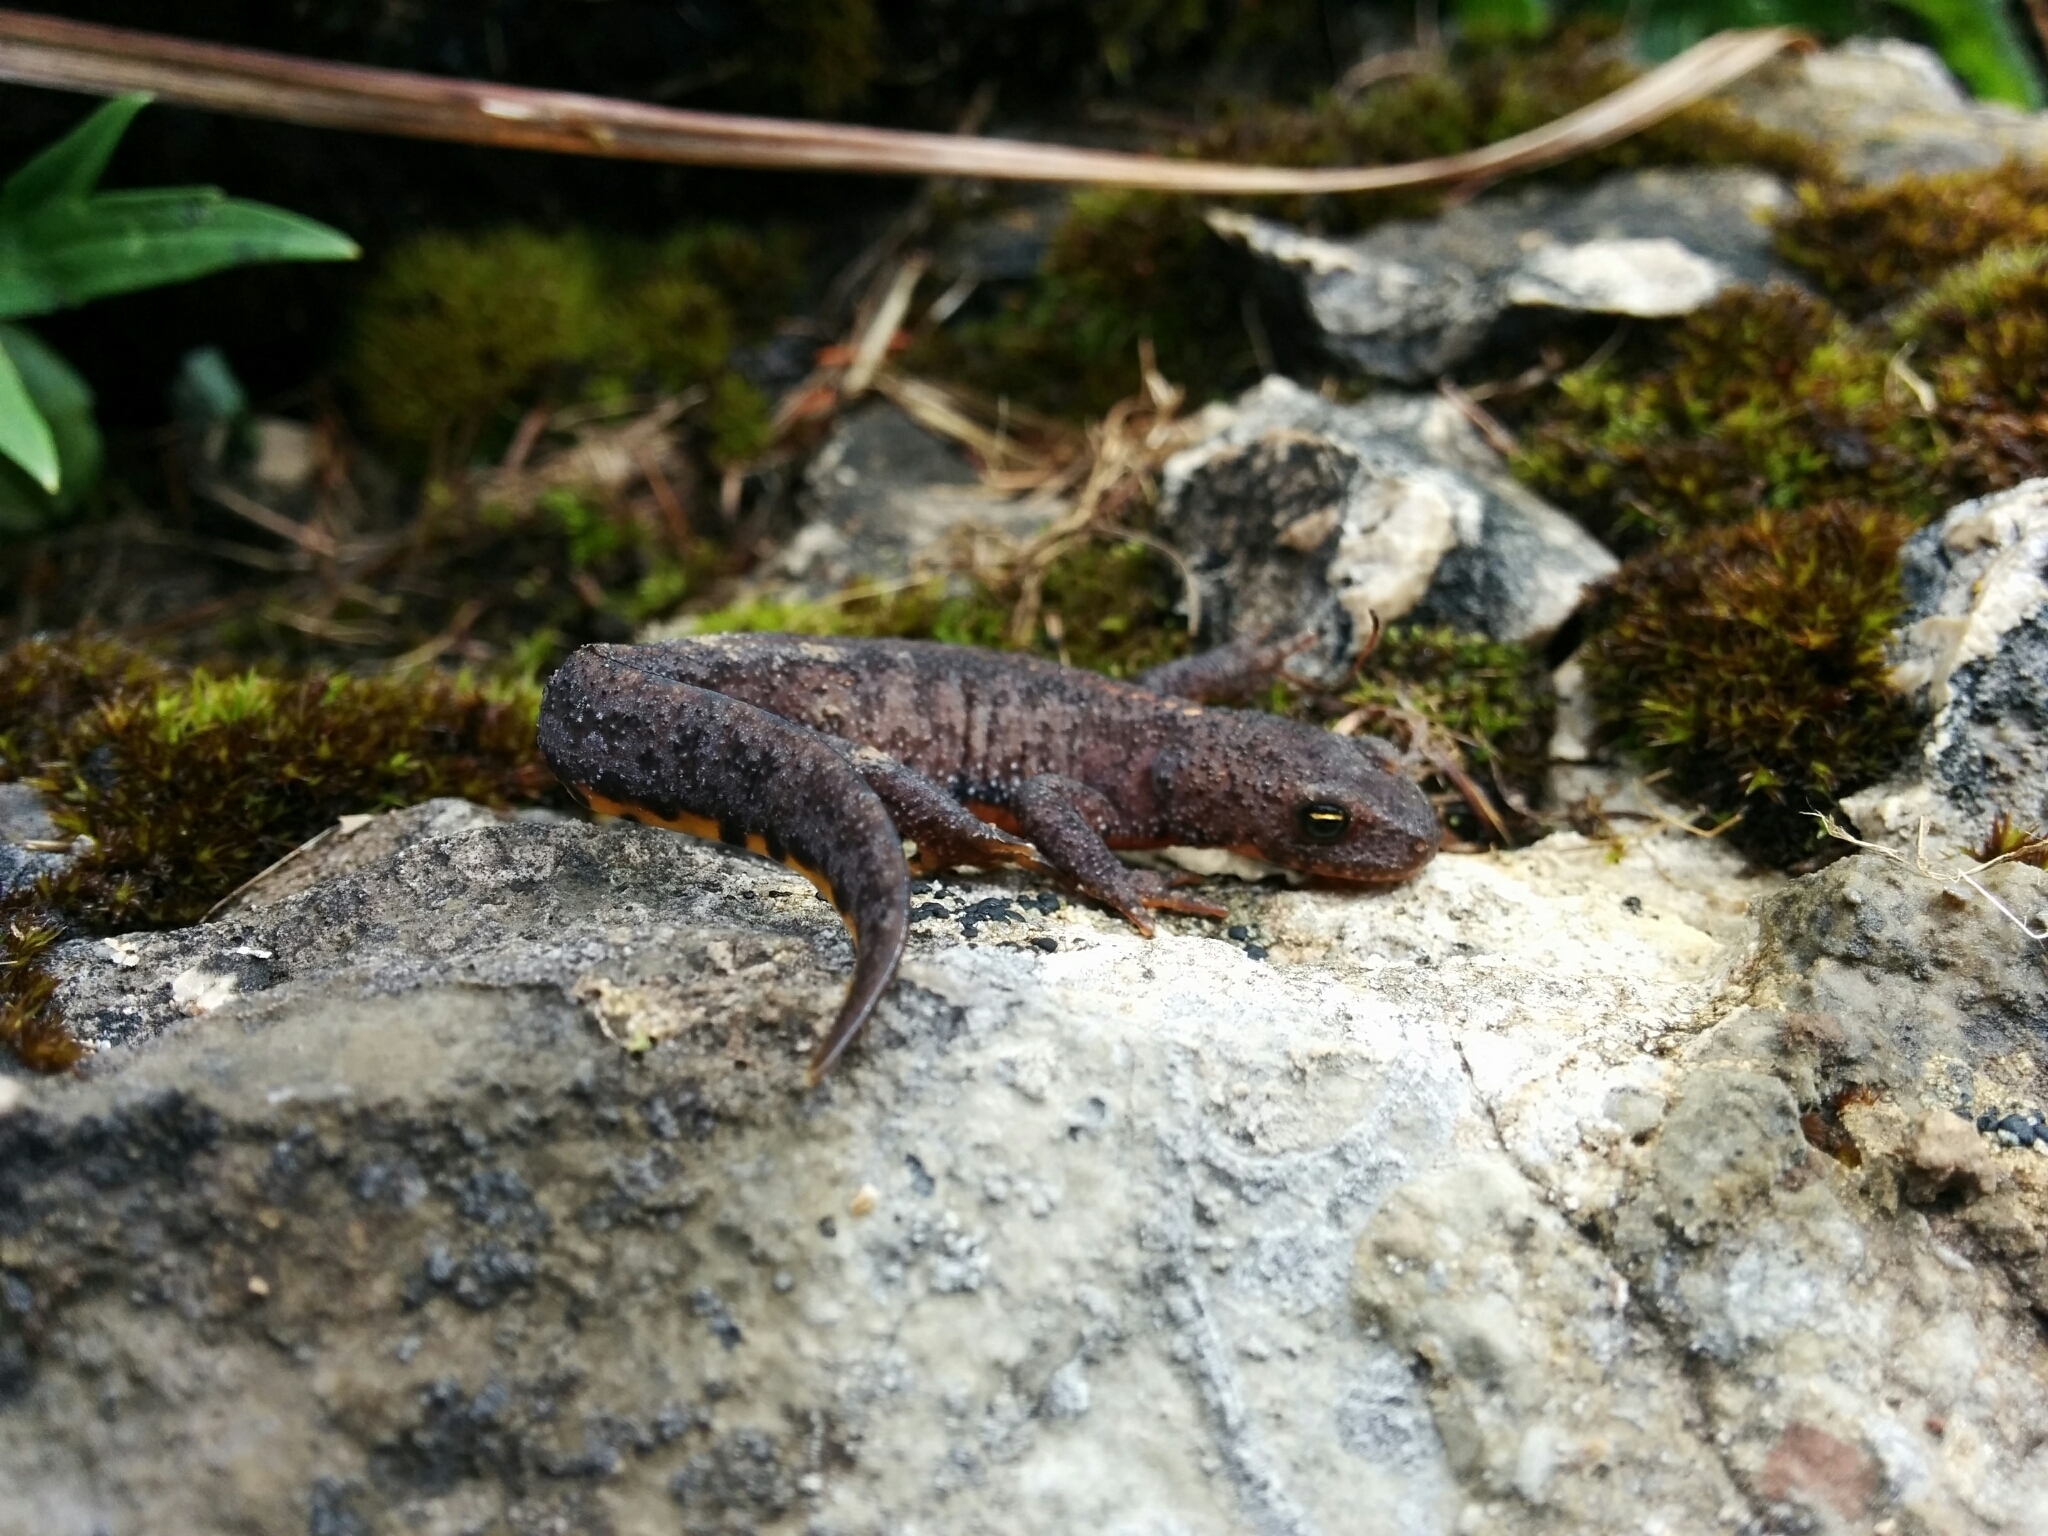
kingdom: Animalia
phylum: Chordata
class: Amphibia
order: Caudata
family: Salamandridae
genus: Ichthyosaura
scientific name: Ichthyosaura alpestris
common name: Alpine newt
